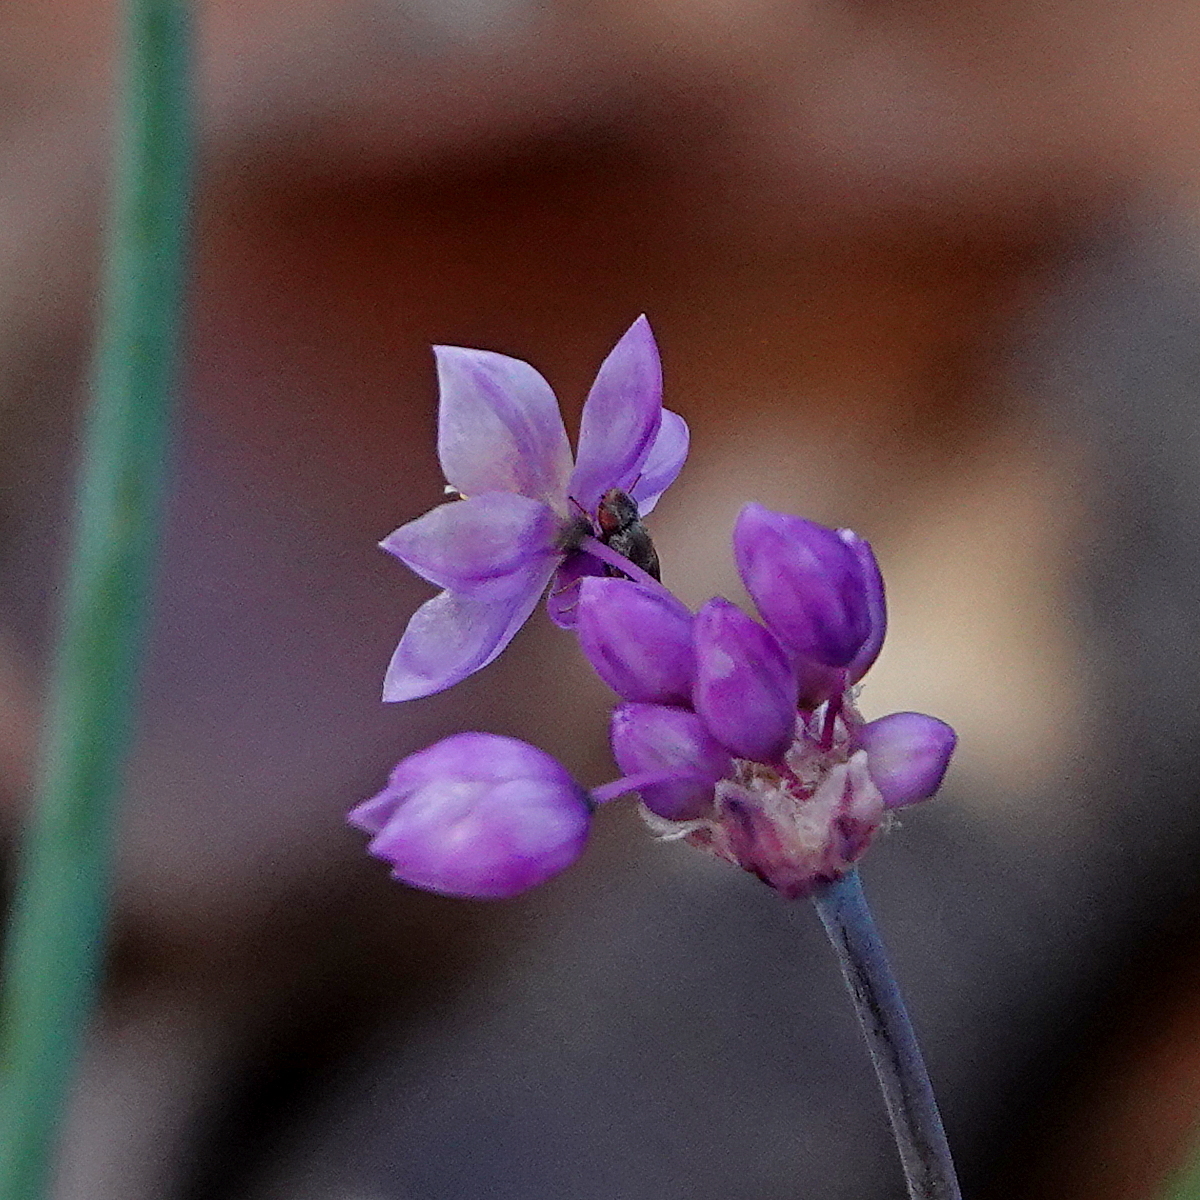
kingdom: Plantae
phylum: Tracheophyta
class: Liliopsida
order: Asparagales
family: Asparagaceae
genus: Sowerbaea
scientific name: Sowerbaea juncea
